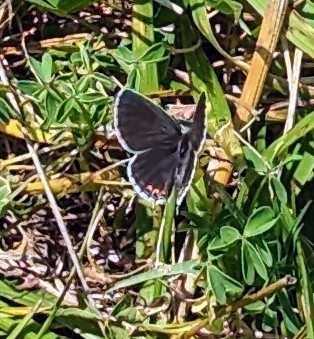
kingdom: Animalia
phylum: Arthropoda
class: Insecta
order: Lepidoptera
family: Lycaenidae
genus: Elkalyce
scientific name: Elkalyce comyntas
